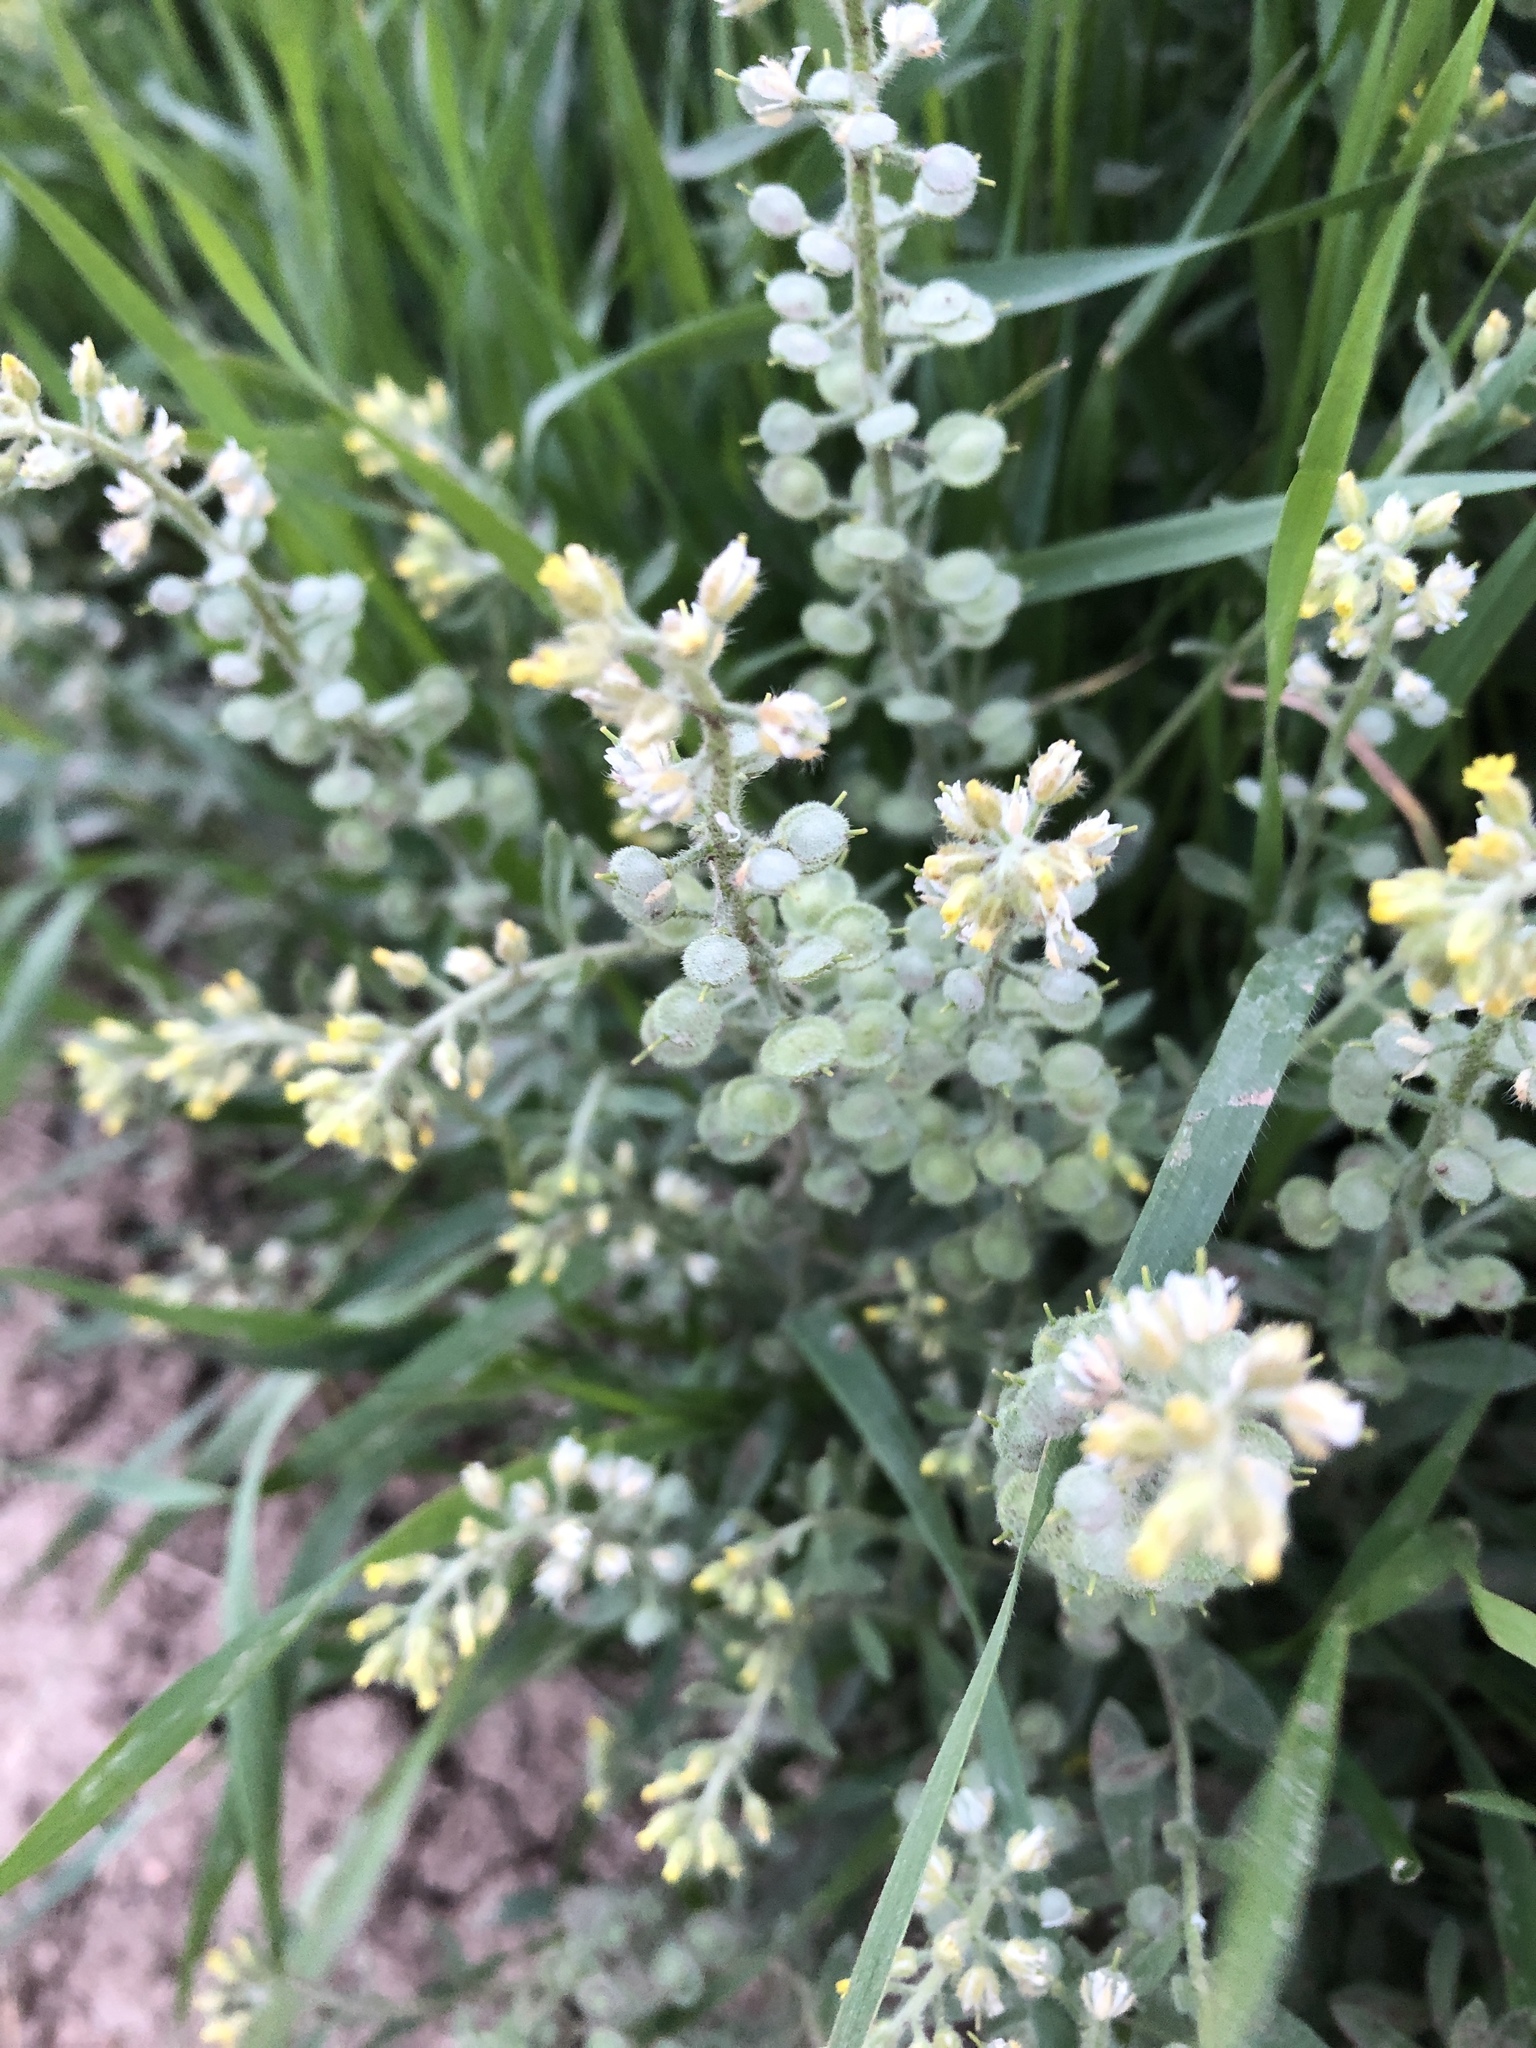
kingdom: Plantae
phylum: Tracheophyta
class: Magnoliopsida
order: Brassicales
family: Brassicaceae
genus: Alyssum
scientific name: Alyssum simplex
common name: Alyssum
